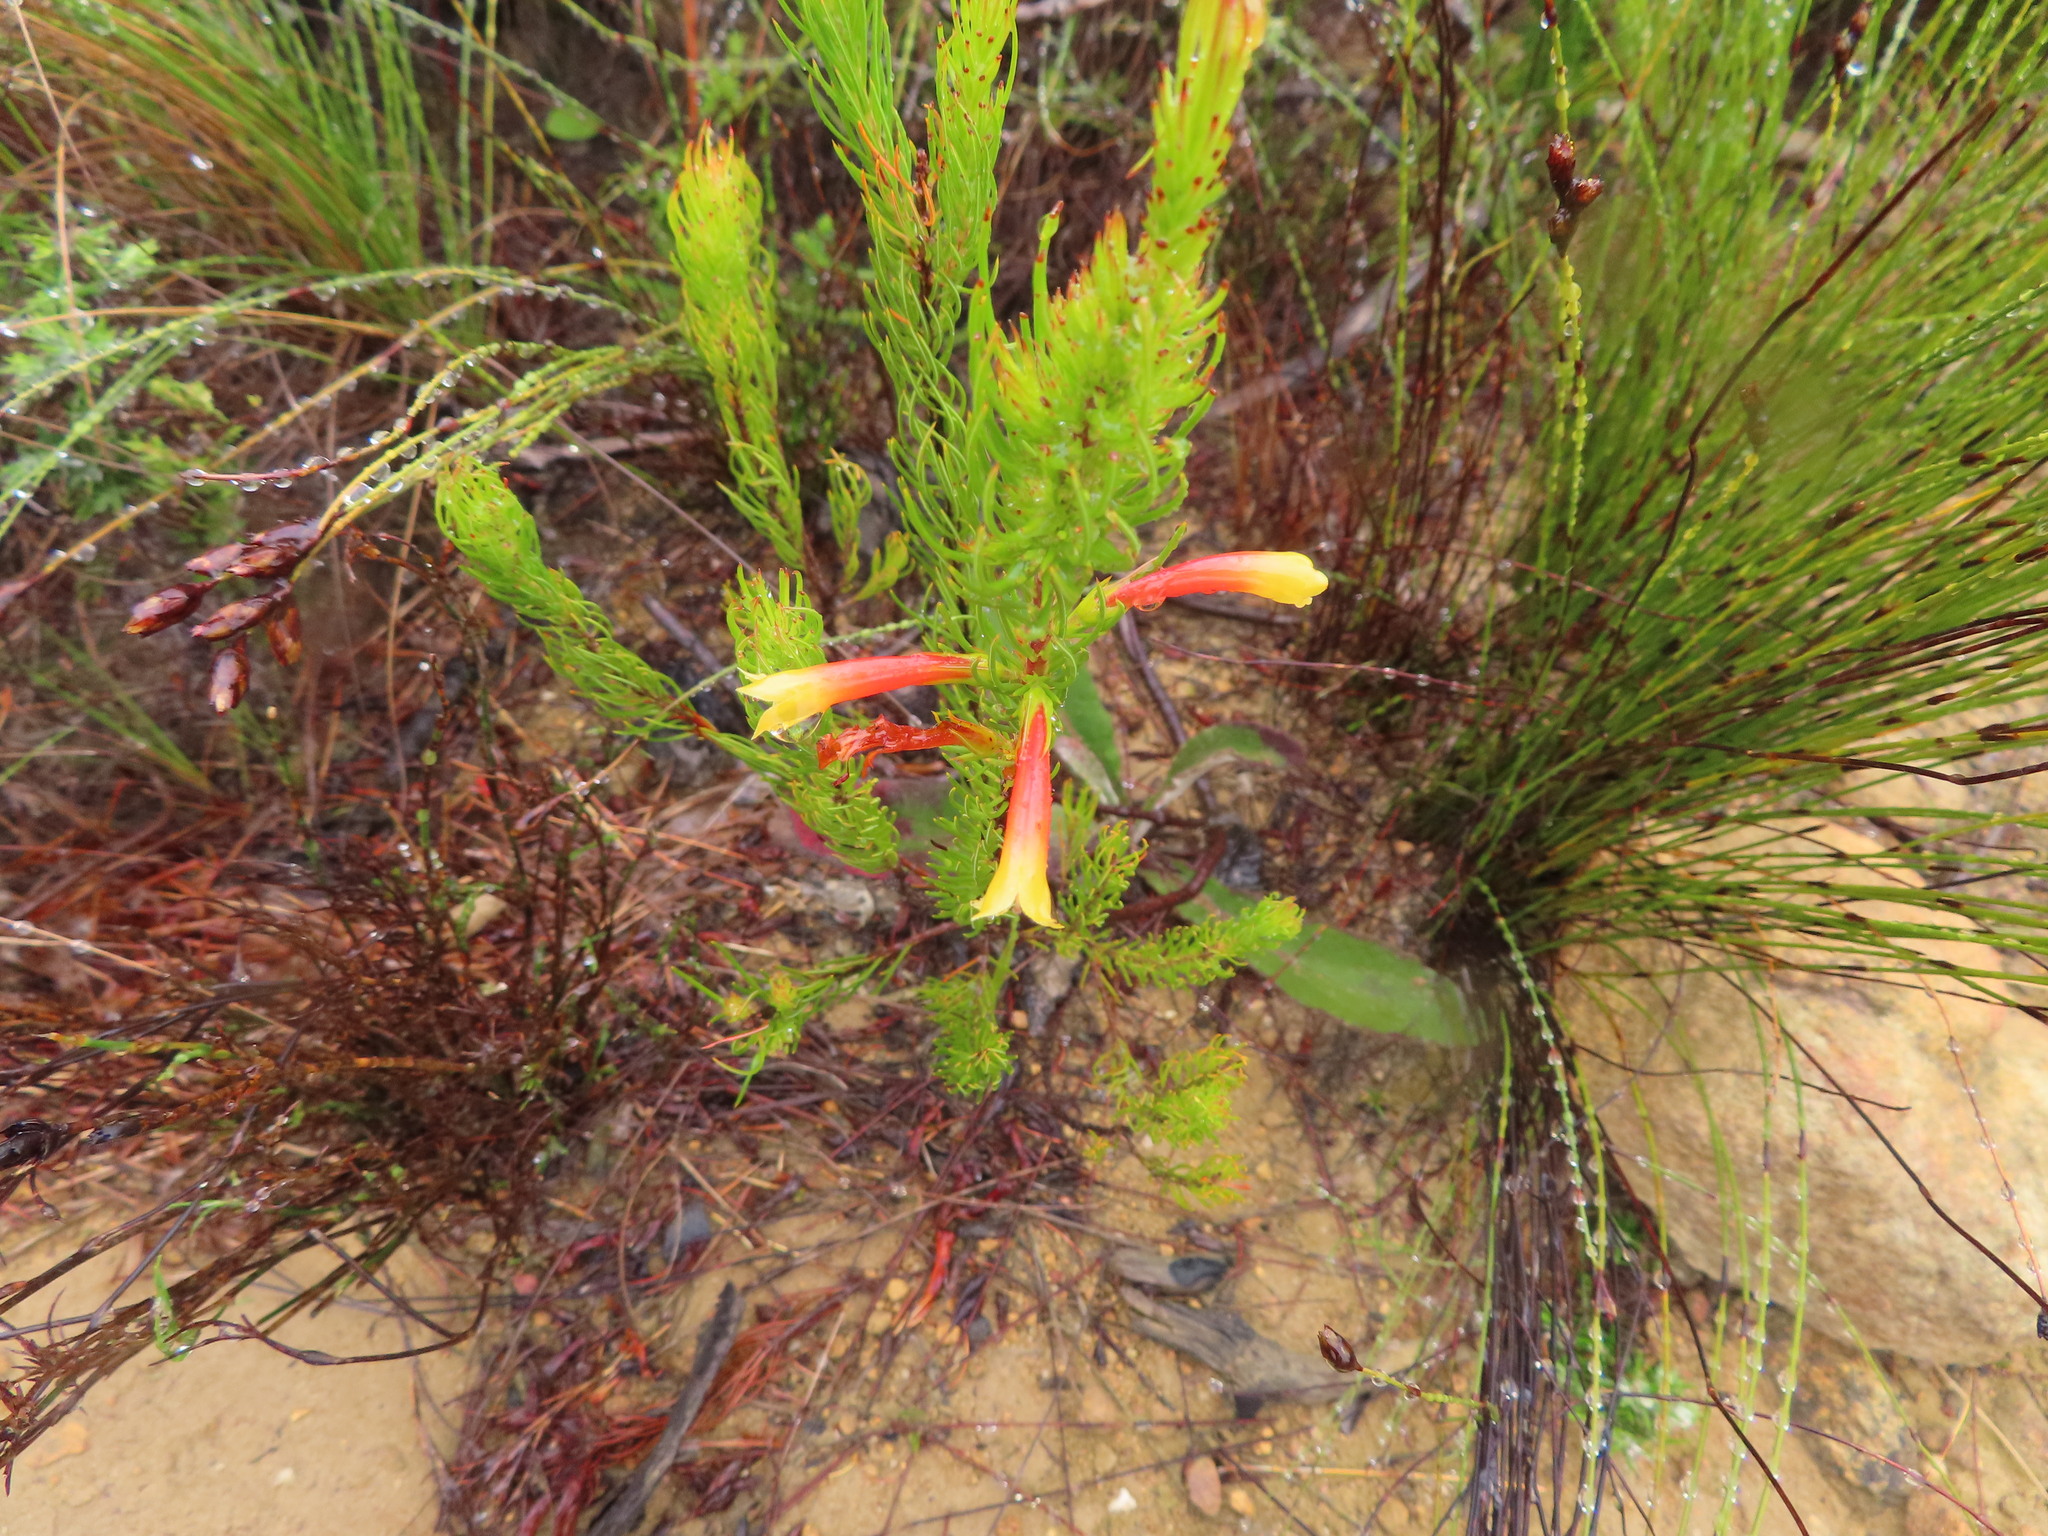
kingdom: Plantae
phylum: Tracheophyta
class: Magnoliopsida
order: Ericales
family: Ericaceae
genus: Erica
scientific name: Erica grandiflora
